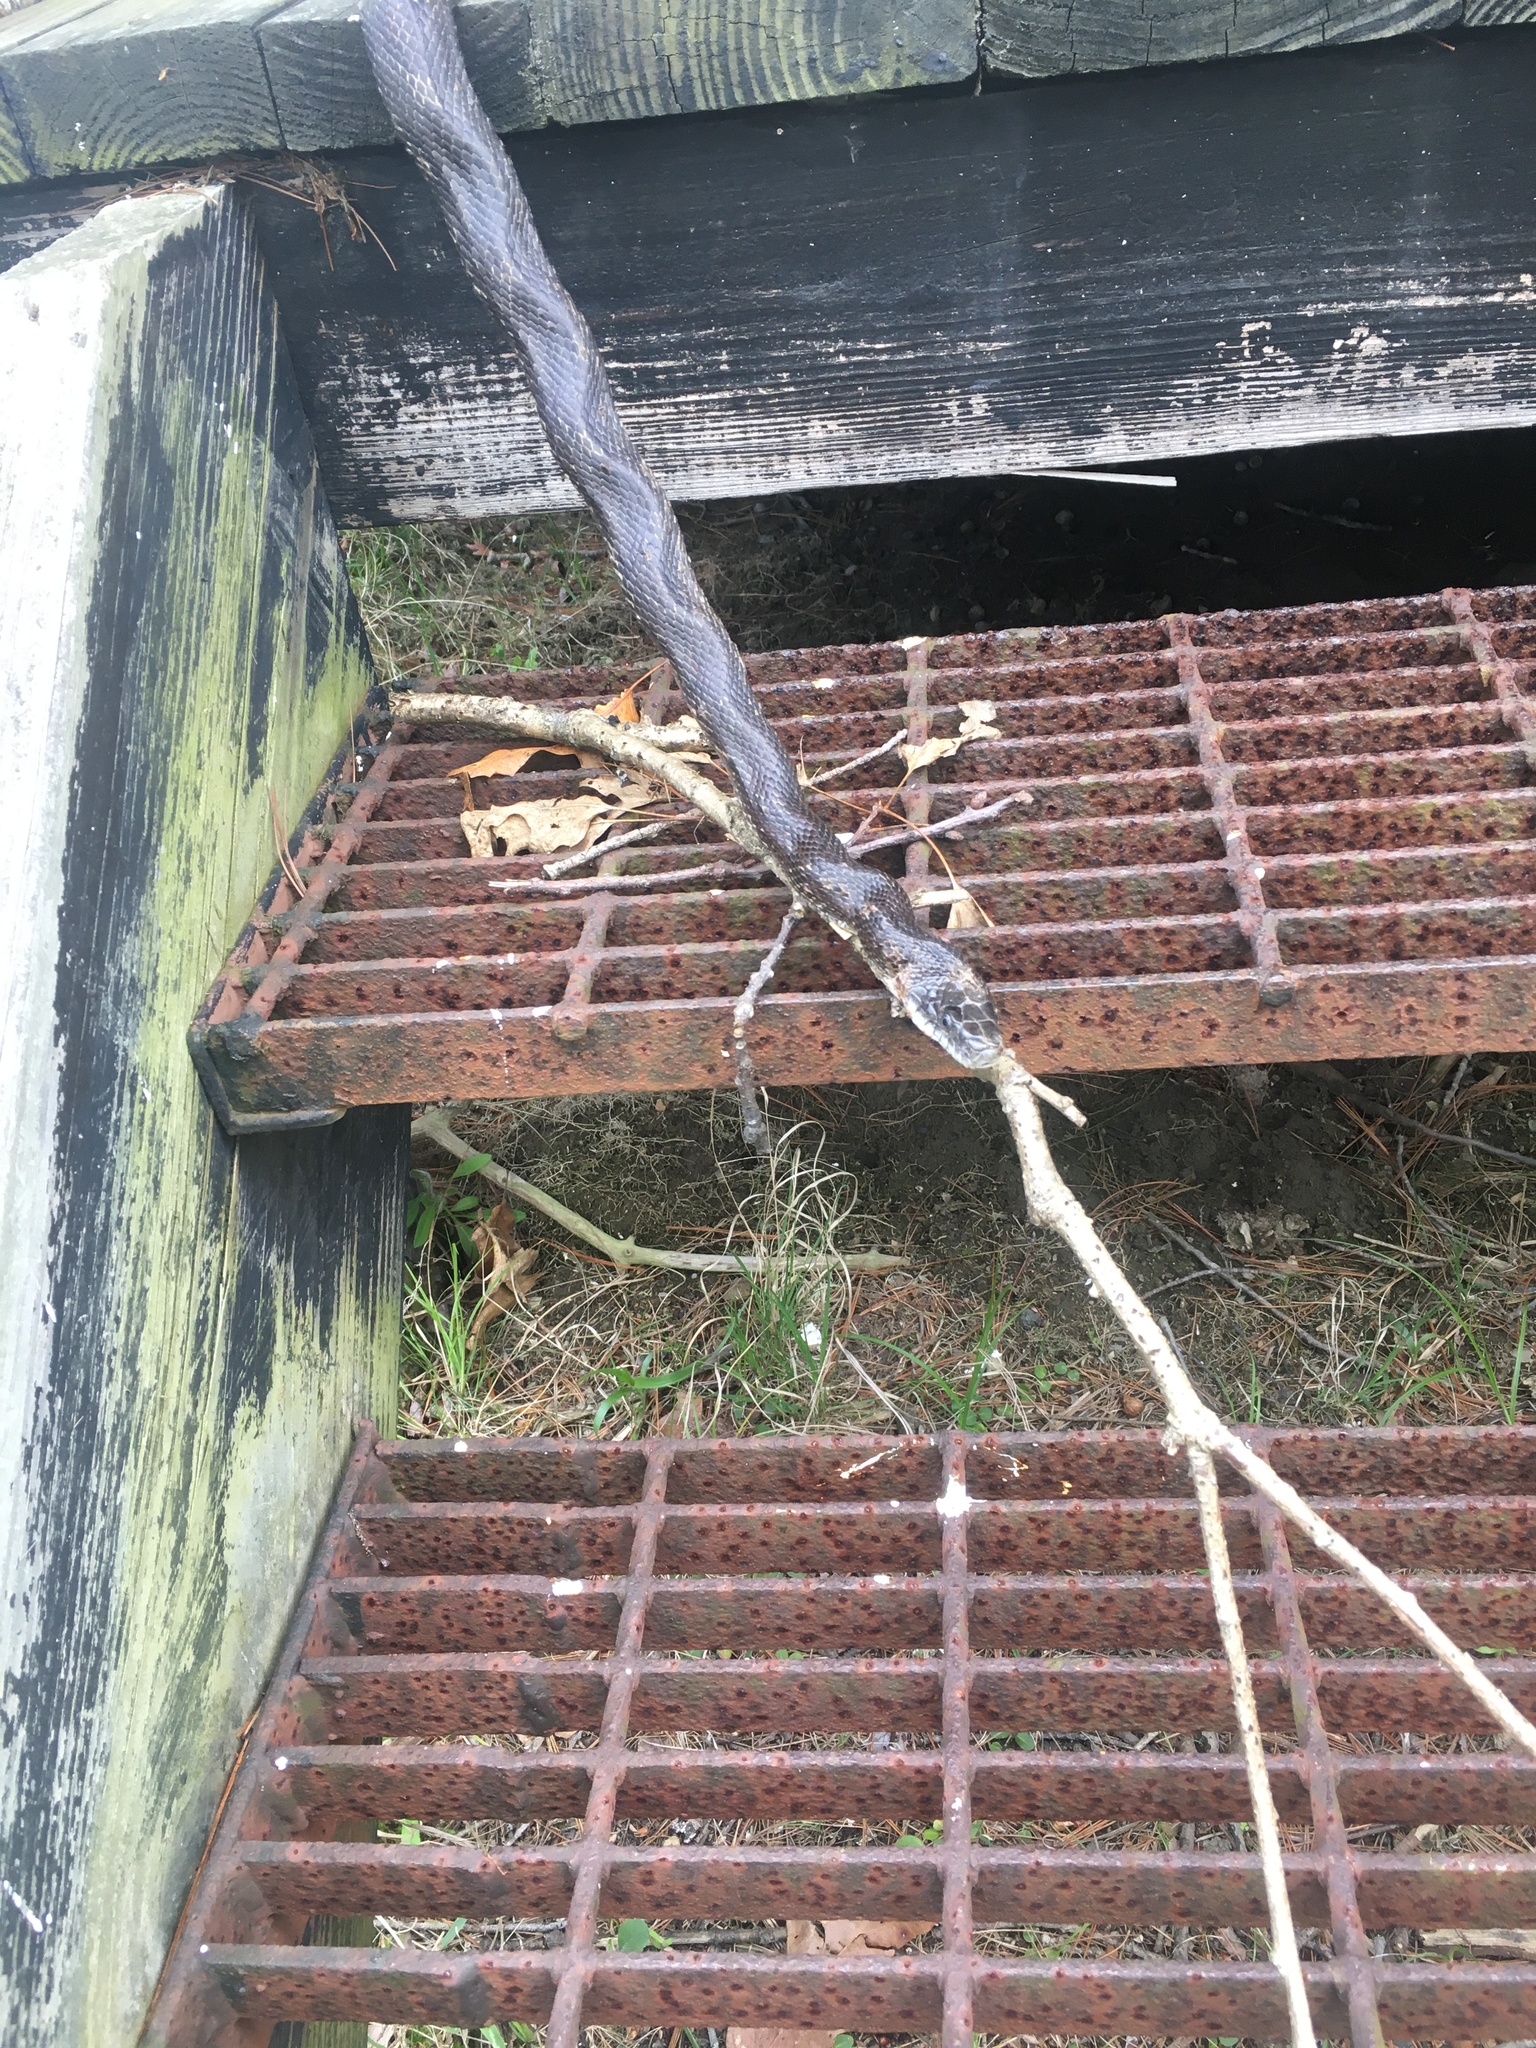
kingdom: Animalia
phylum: Chordata
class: Squamata
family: Colubridae
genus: Pantherophis
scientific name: Pantherophis spiloides
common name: Gray rat snake
